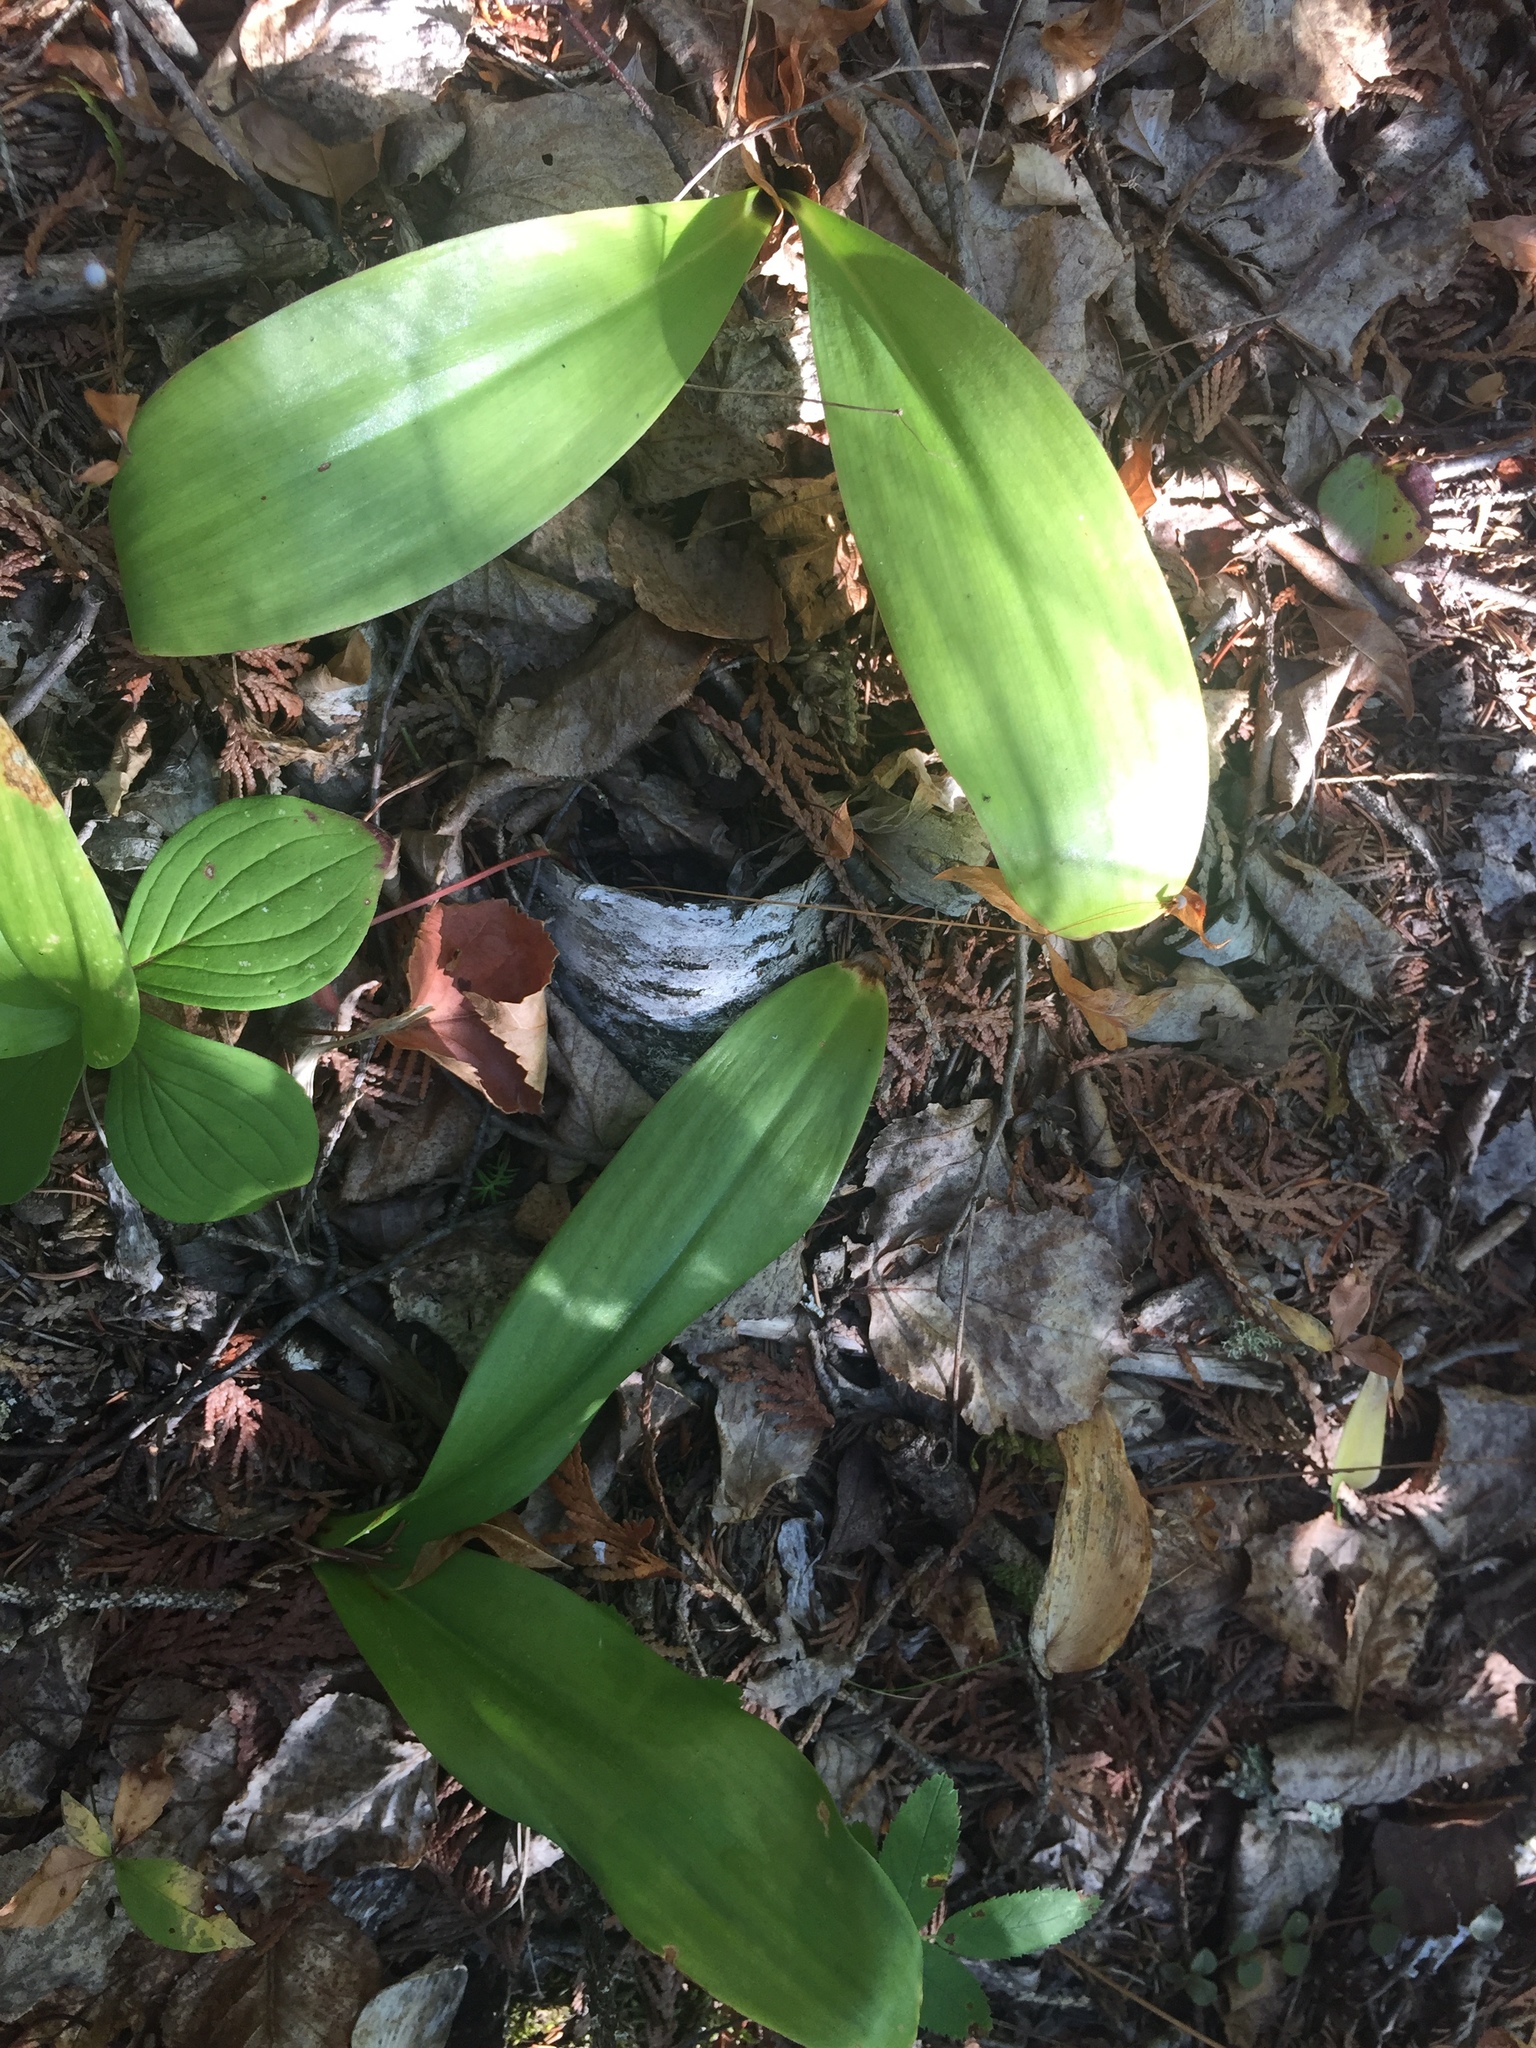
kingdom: Plantae
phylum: Tracheophyta
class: Liliopsida
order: Liliales
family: Liliaceae
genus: Clintonia
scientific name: Clintonia borealis
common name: Yellow clintonia
